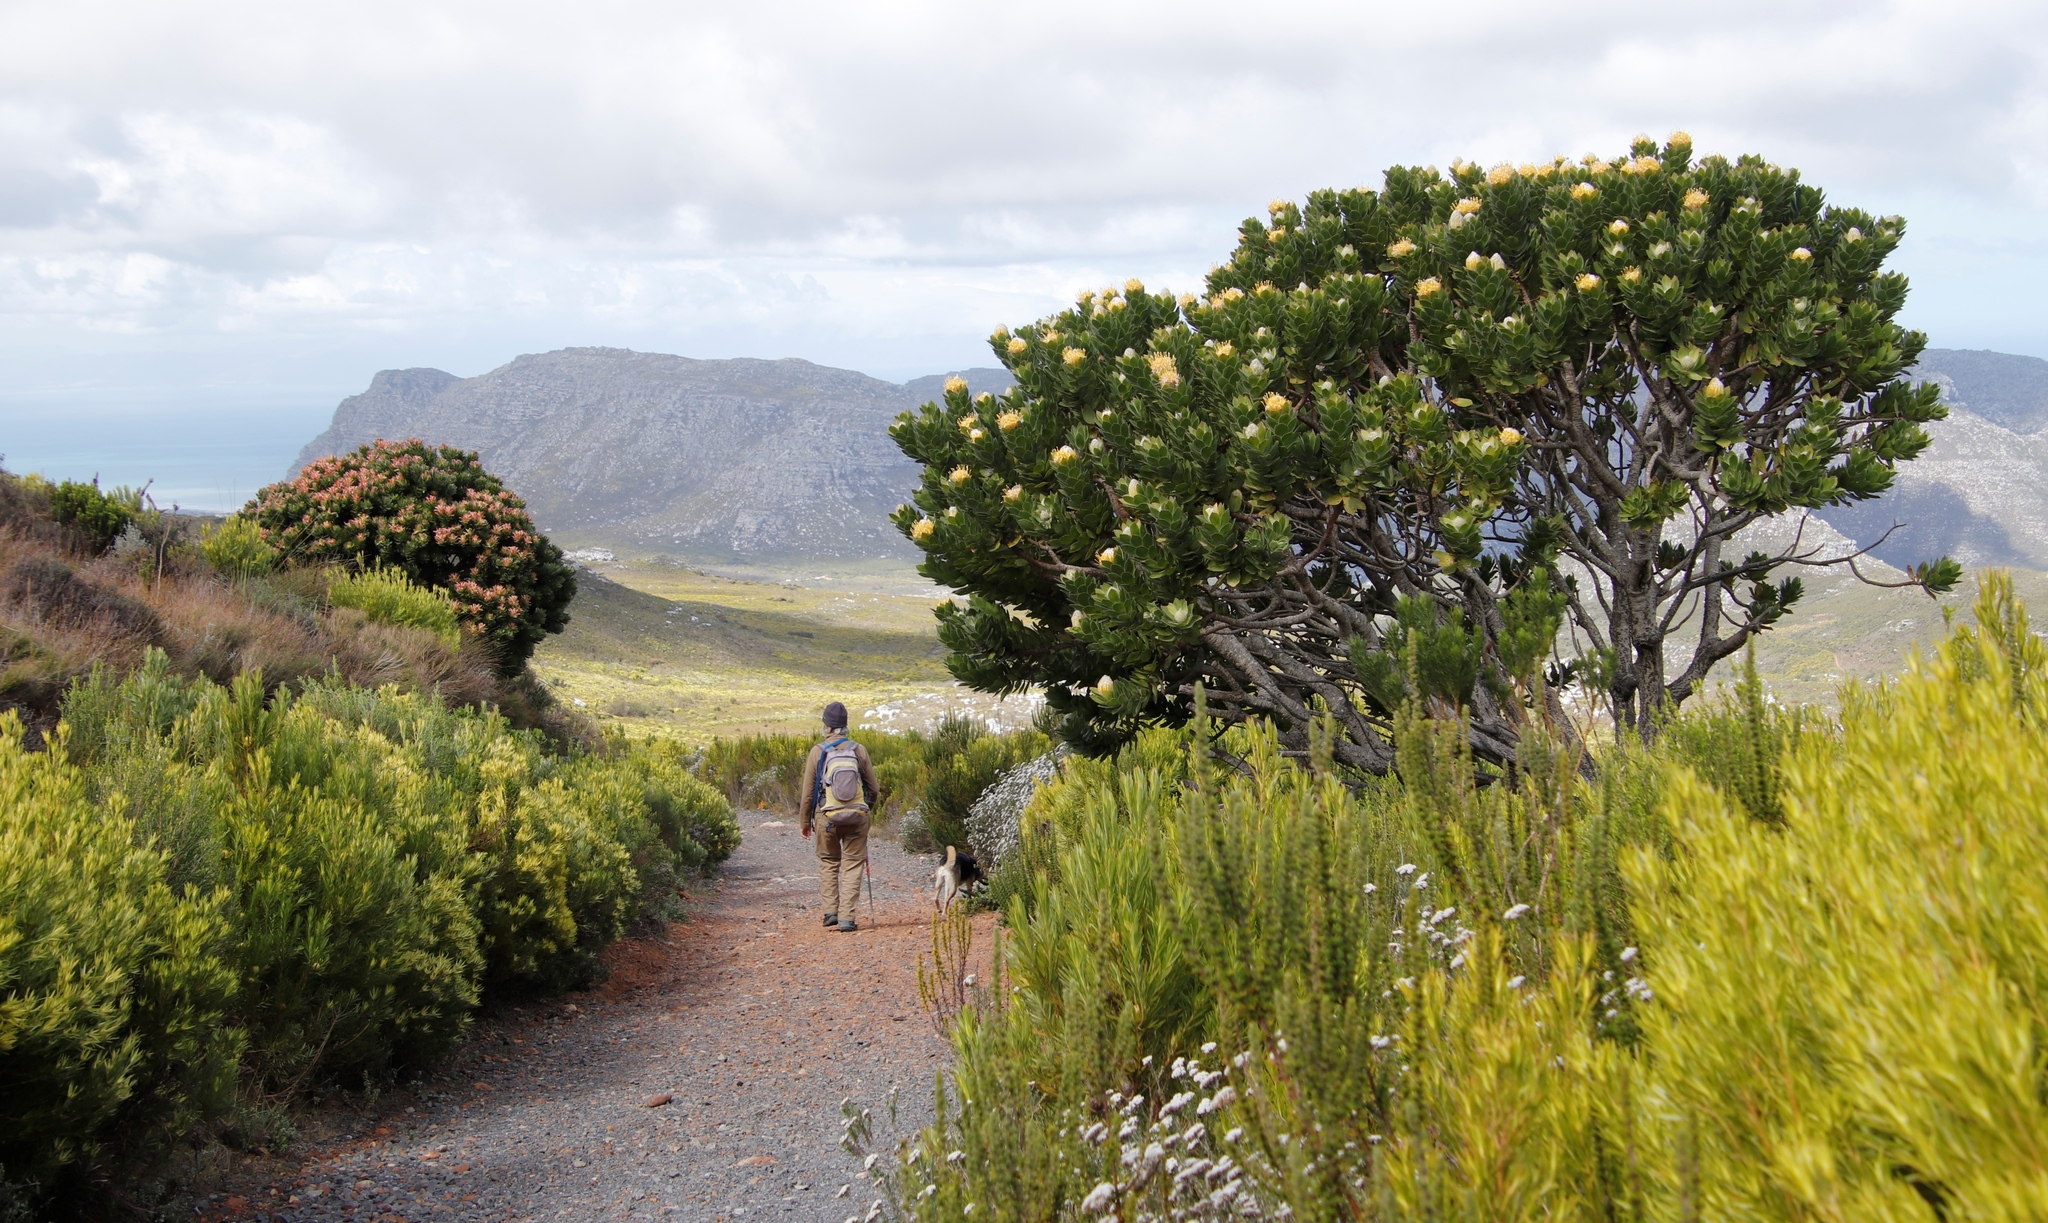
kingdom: Plantae
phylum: Tracheophyta
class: Magnoliopsida
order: Proteales
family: Proteaceae
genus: Mimetes
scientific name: Mimetes fimbriifolius
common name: Fringed bottlebrush
